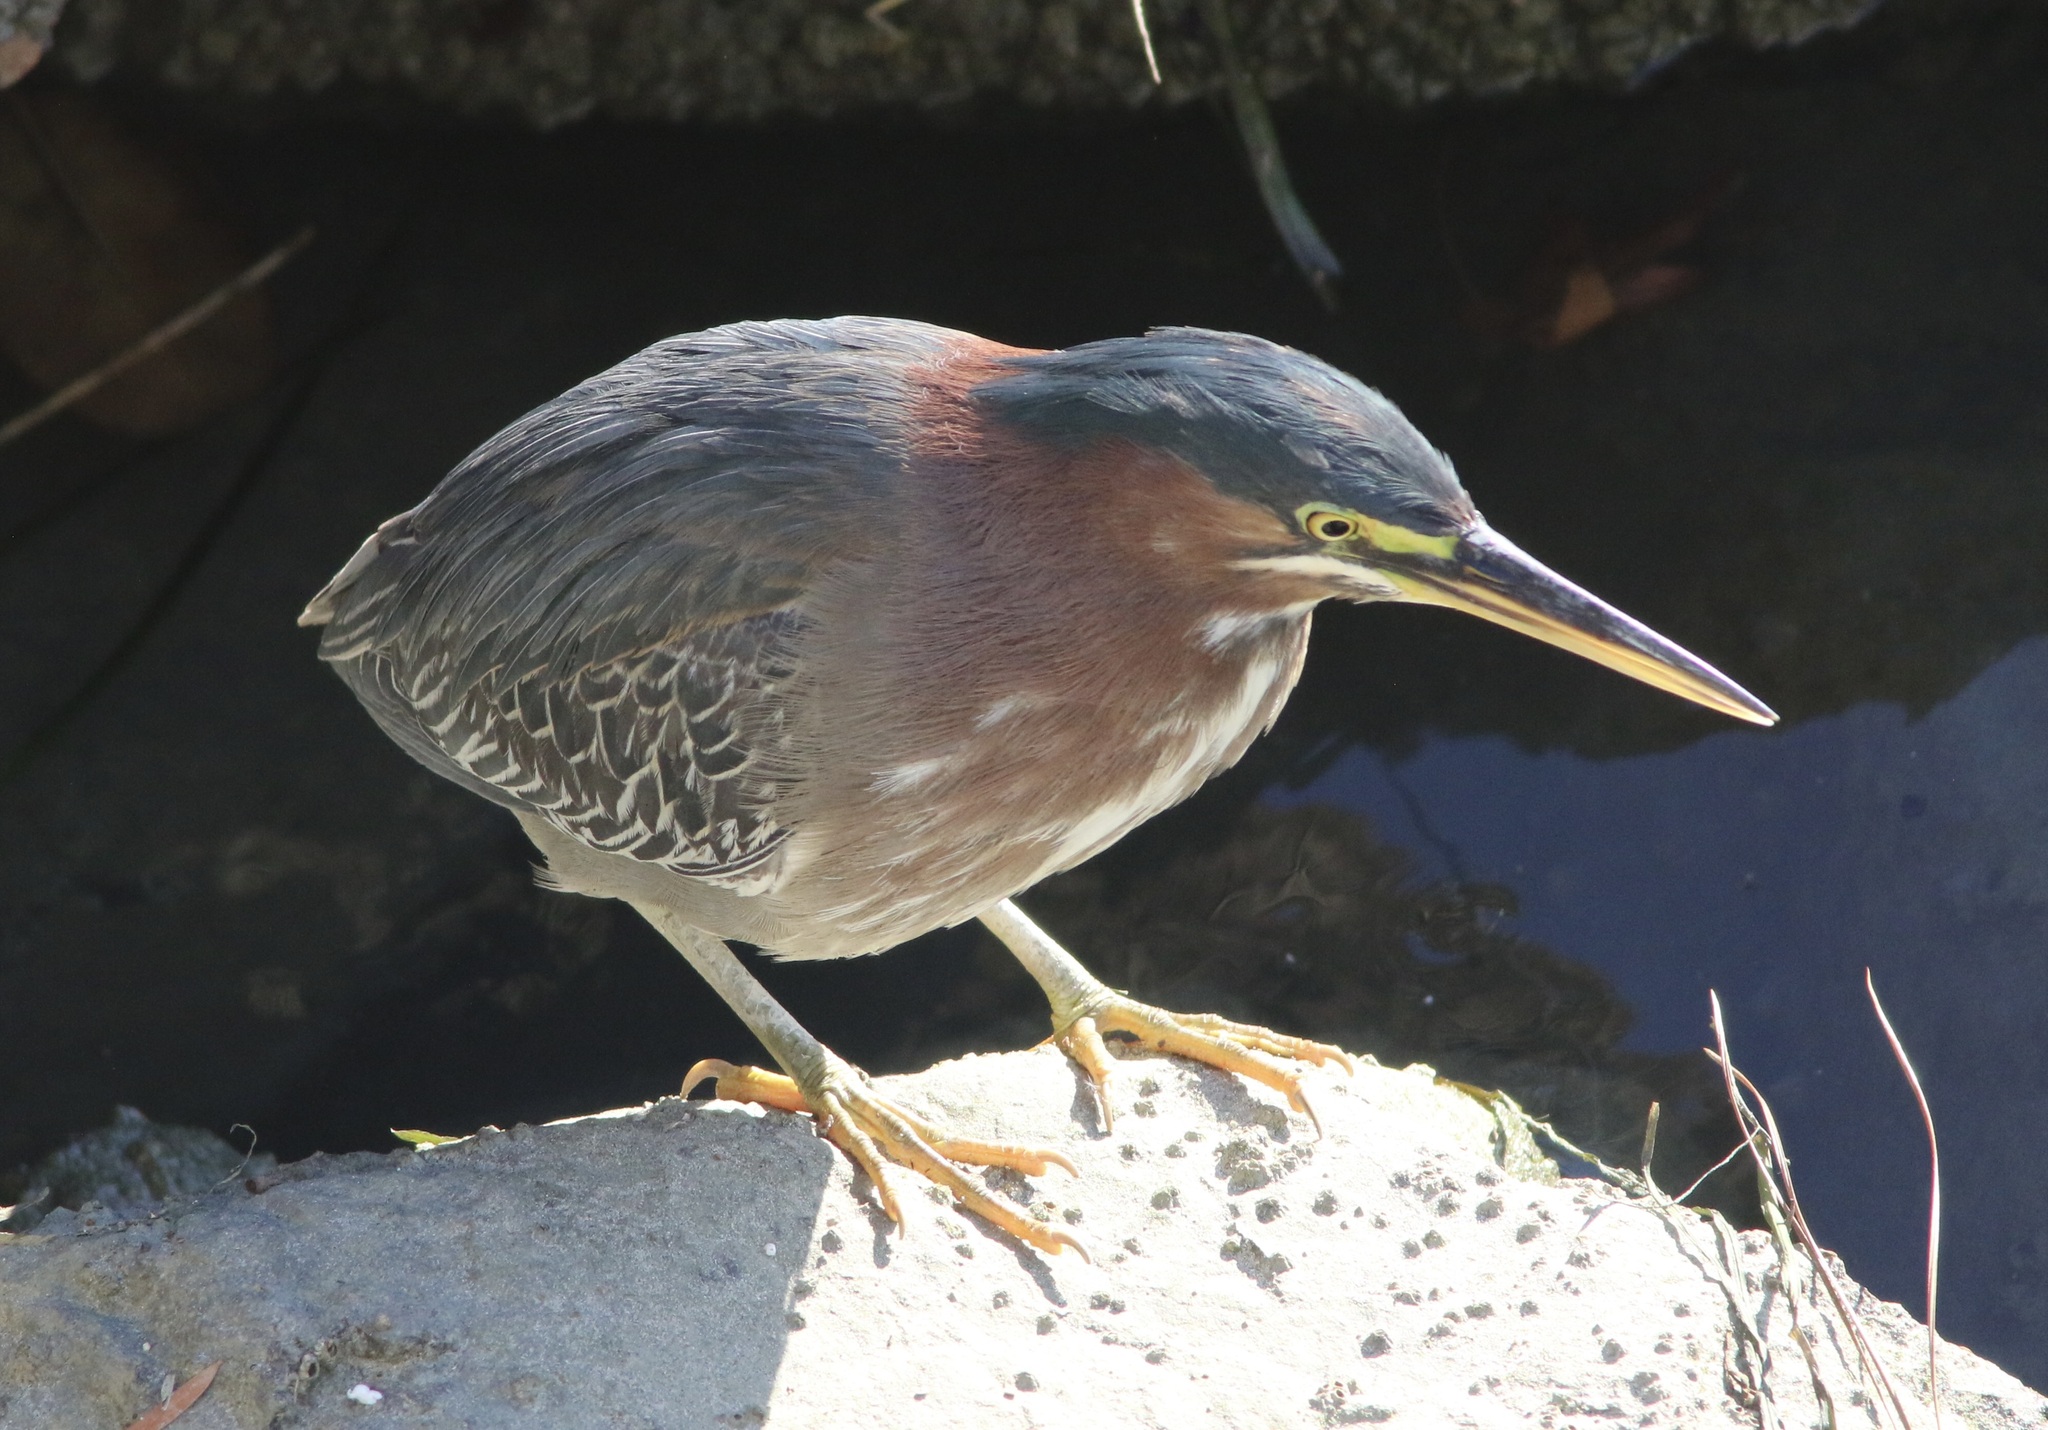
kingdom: Animalia
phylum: Chordata
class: Aves
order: Pelecaniformes
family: Ardeidae
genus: Butorides
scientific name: Butorides virescens
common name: Green heron
